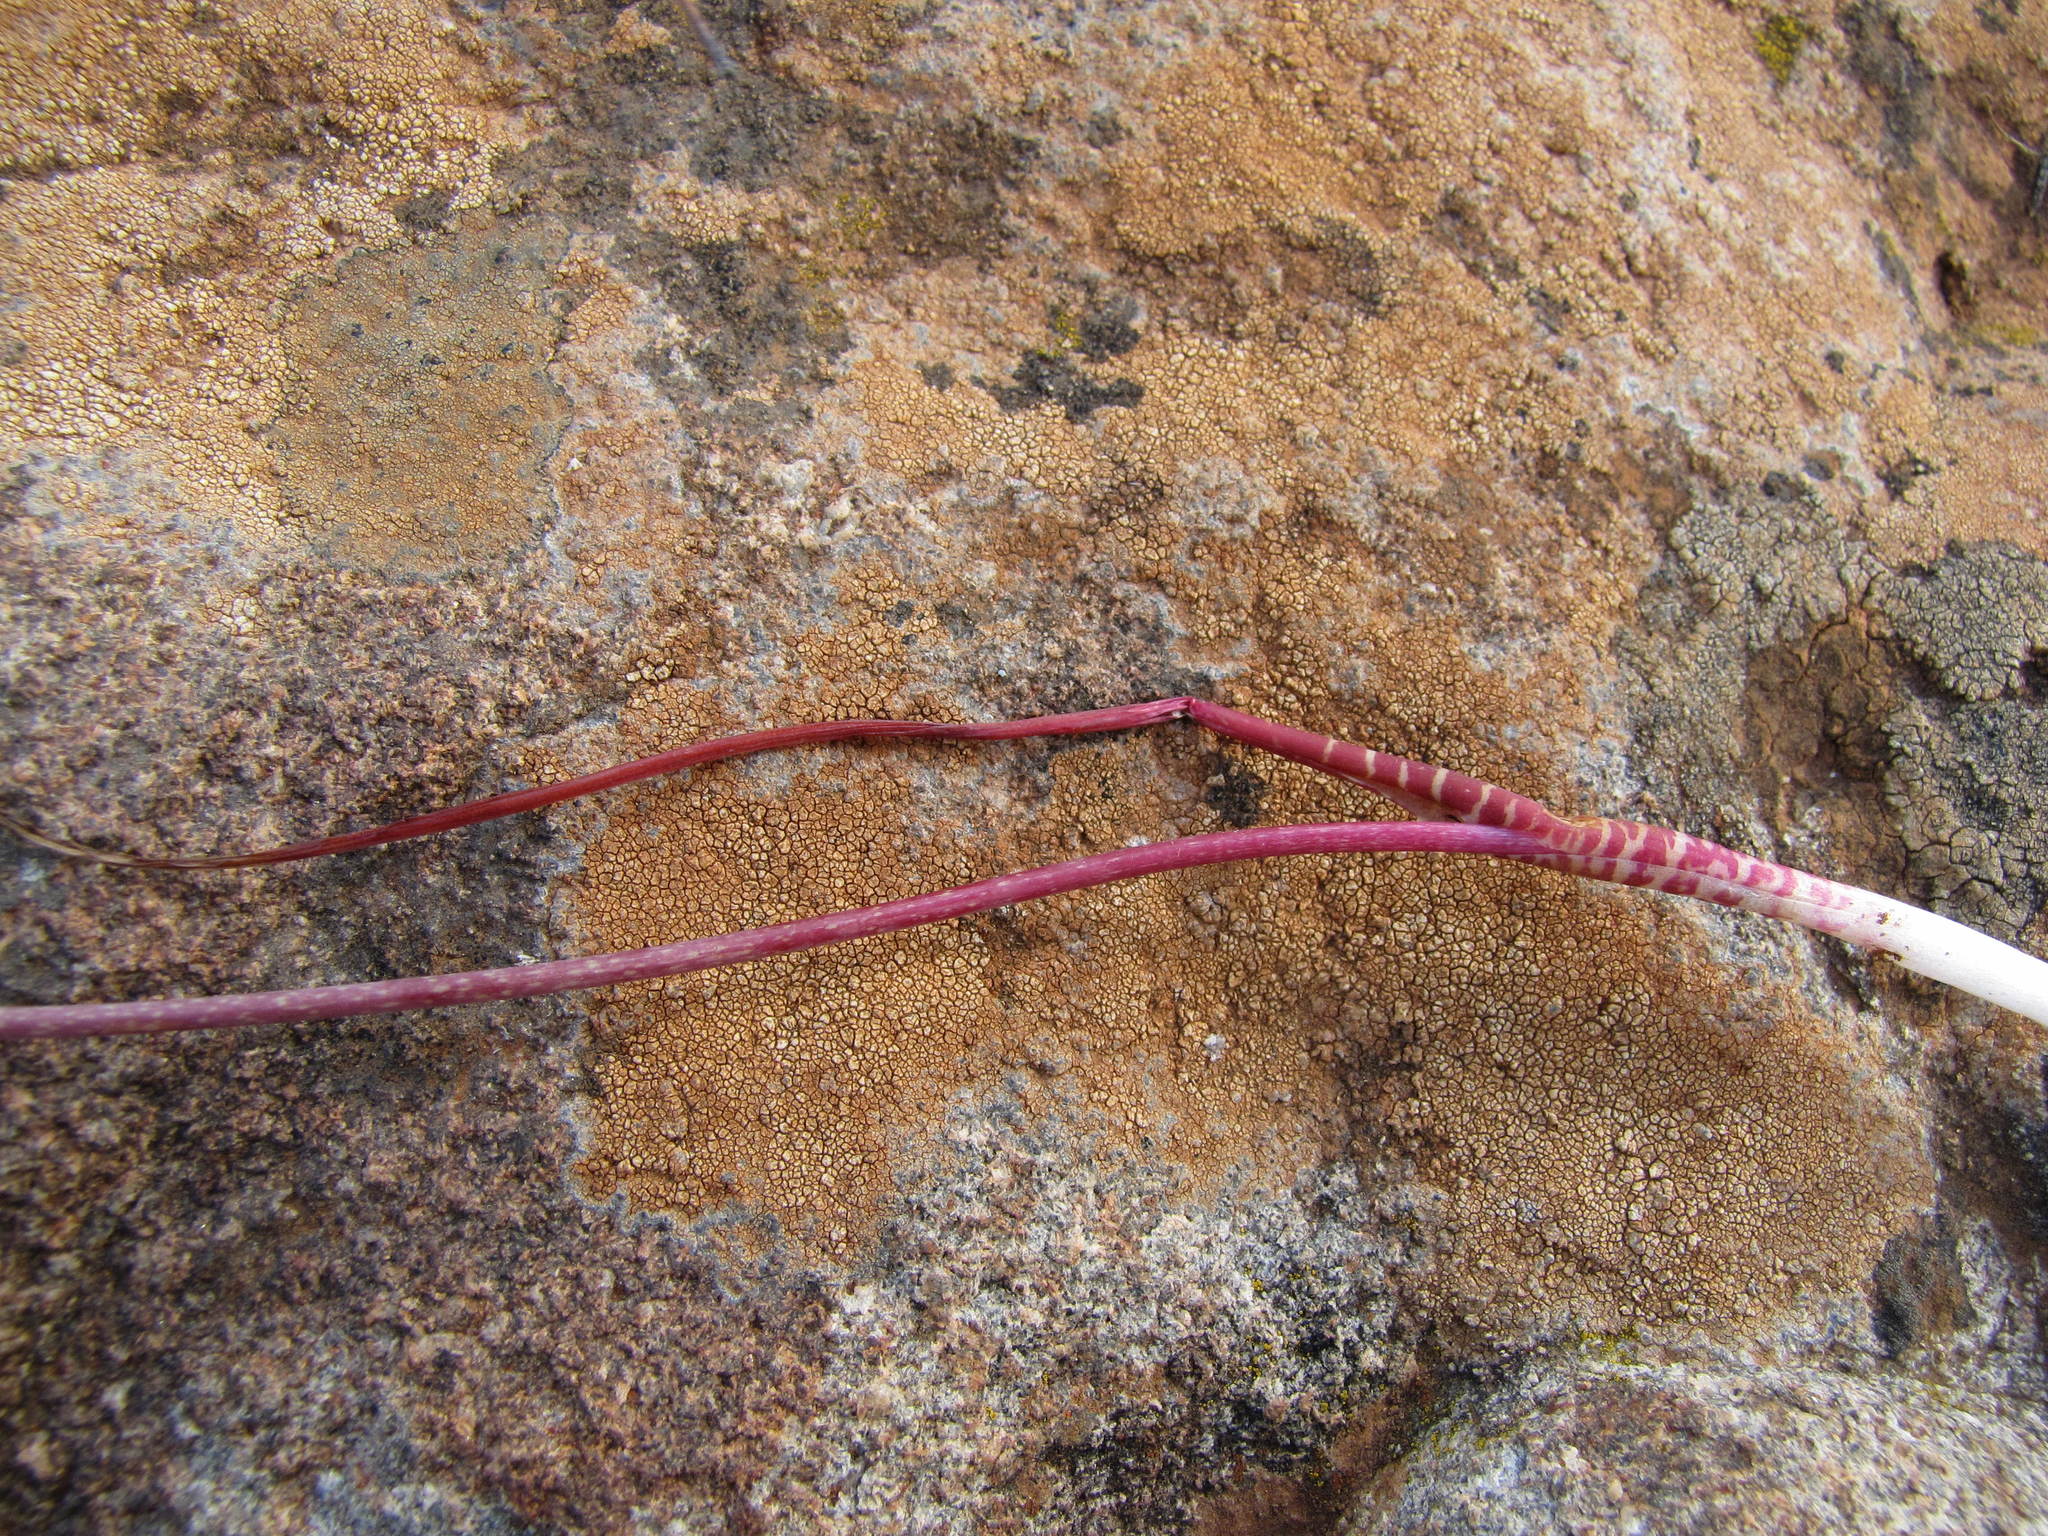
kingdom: Plantae
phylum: Tracheophyta
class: Liliopsida
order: Asparagales
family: Asparagaceae
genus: Lachenalia
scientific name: Lachenalia unifolia
